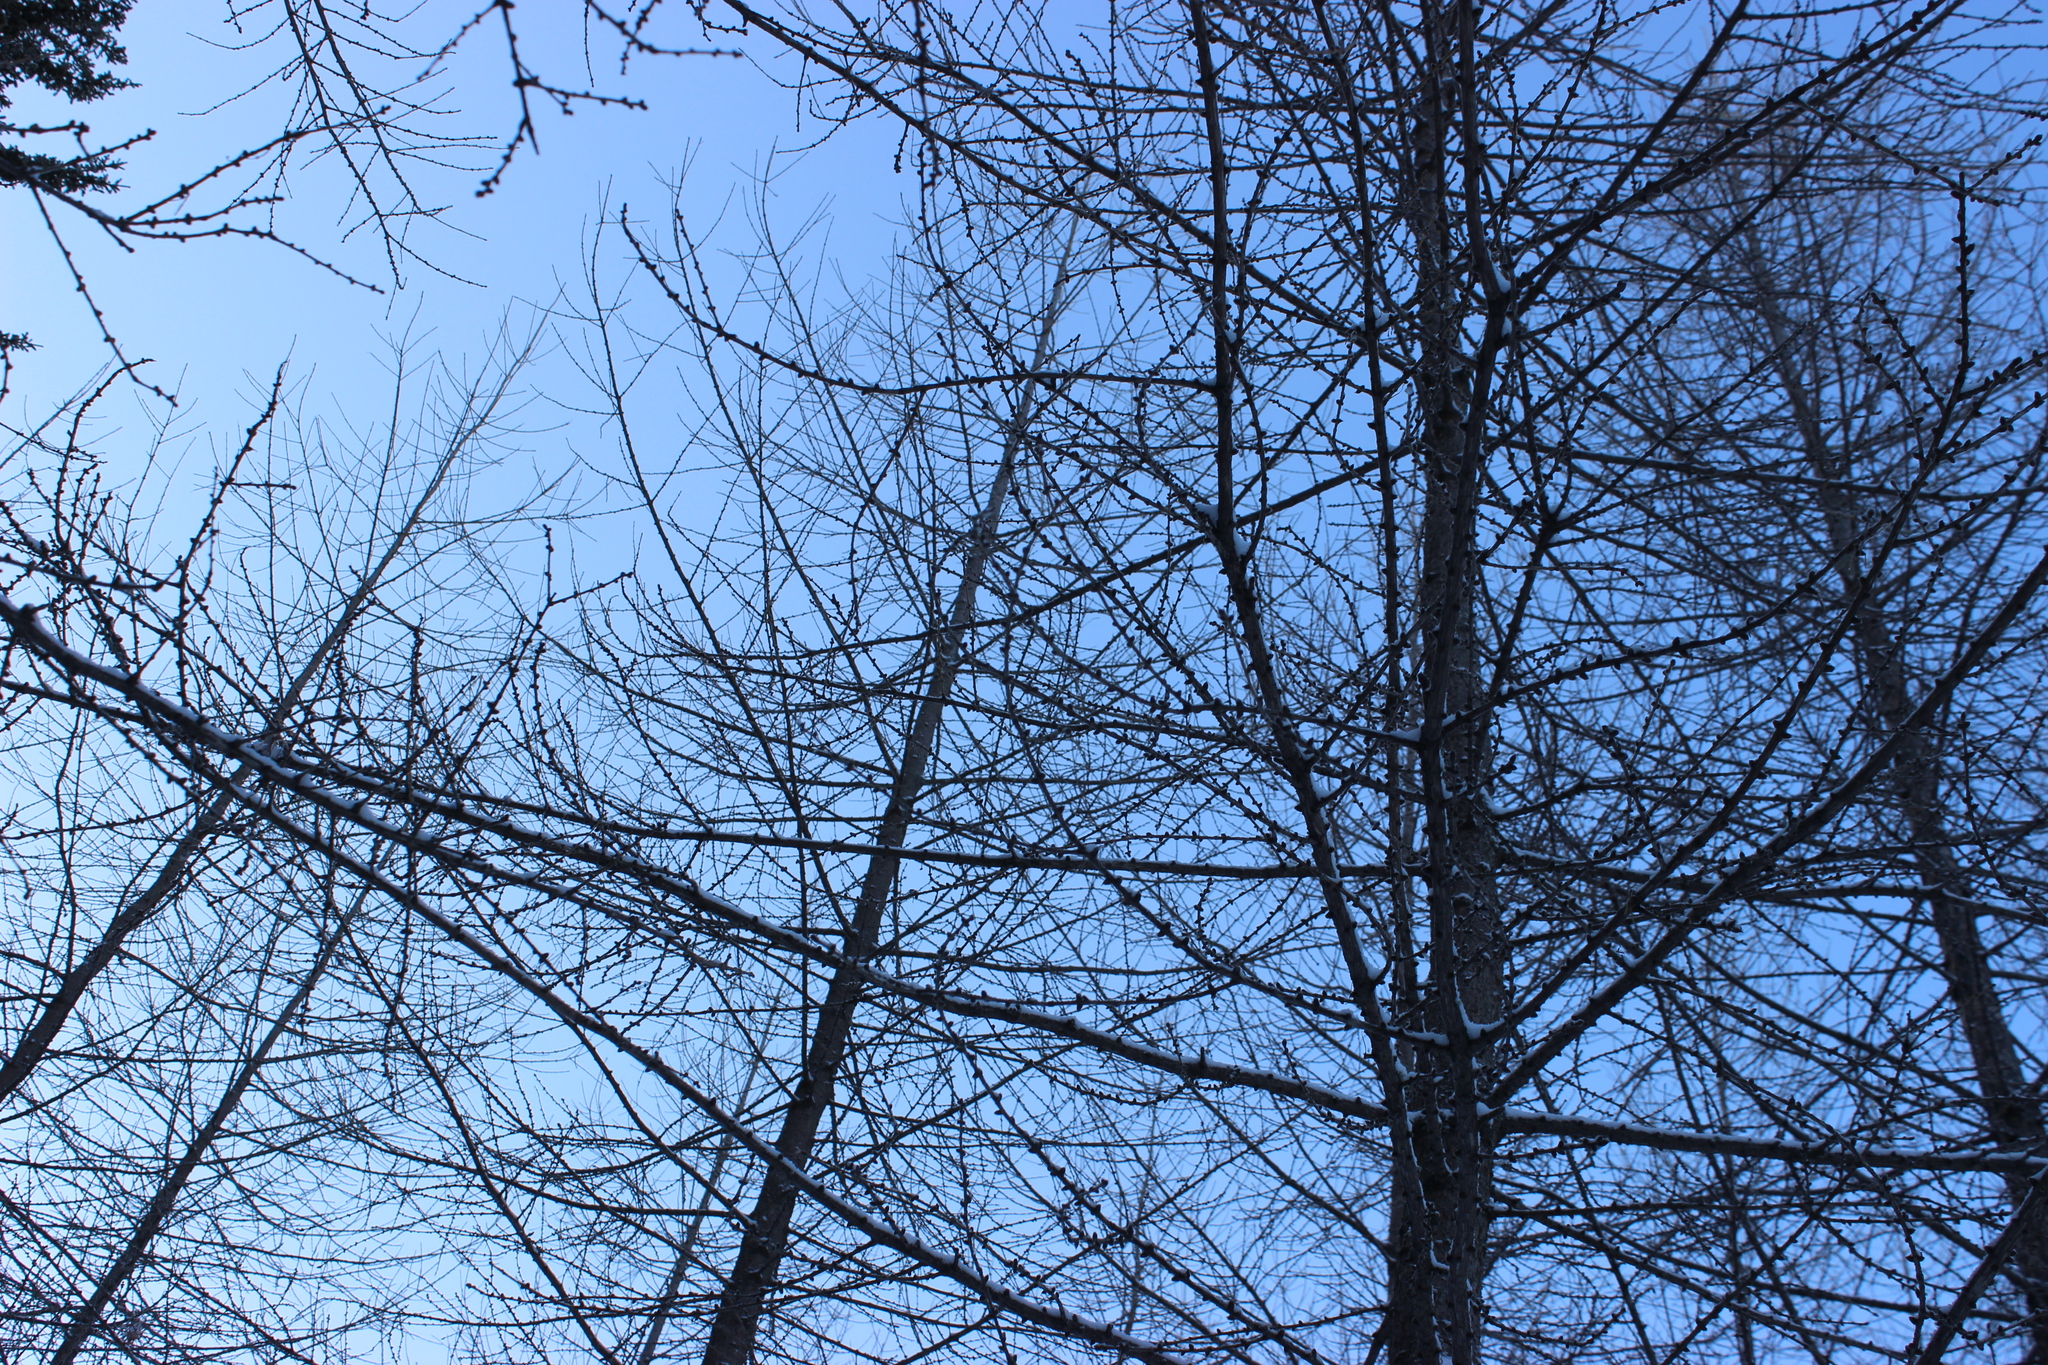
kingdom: Plantae
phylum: Tracheophyta
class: Pinopsida
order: Pinales
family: Pinaceae
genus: Larix
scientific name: Larix sibirica
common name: Siberian larch
